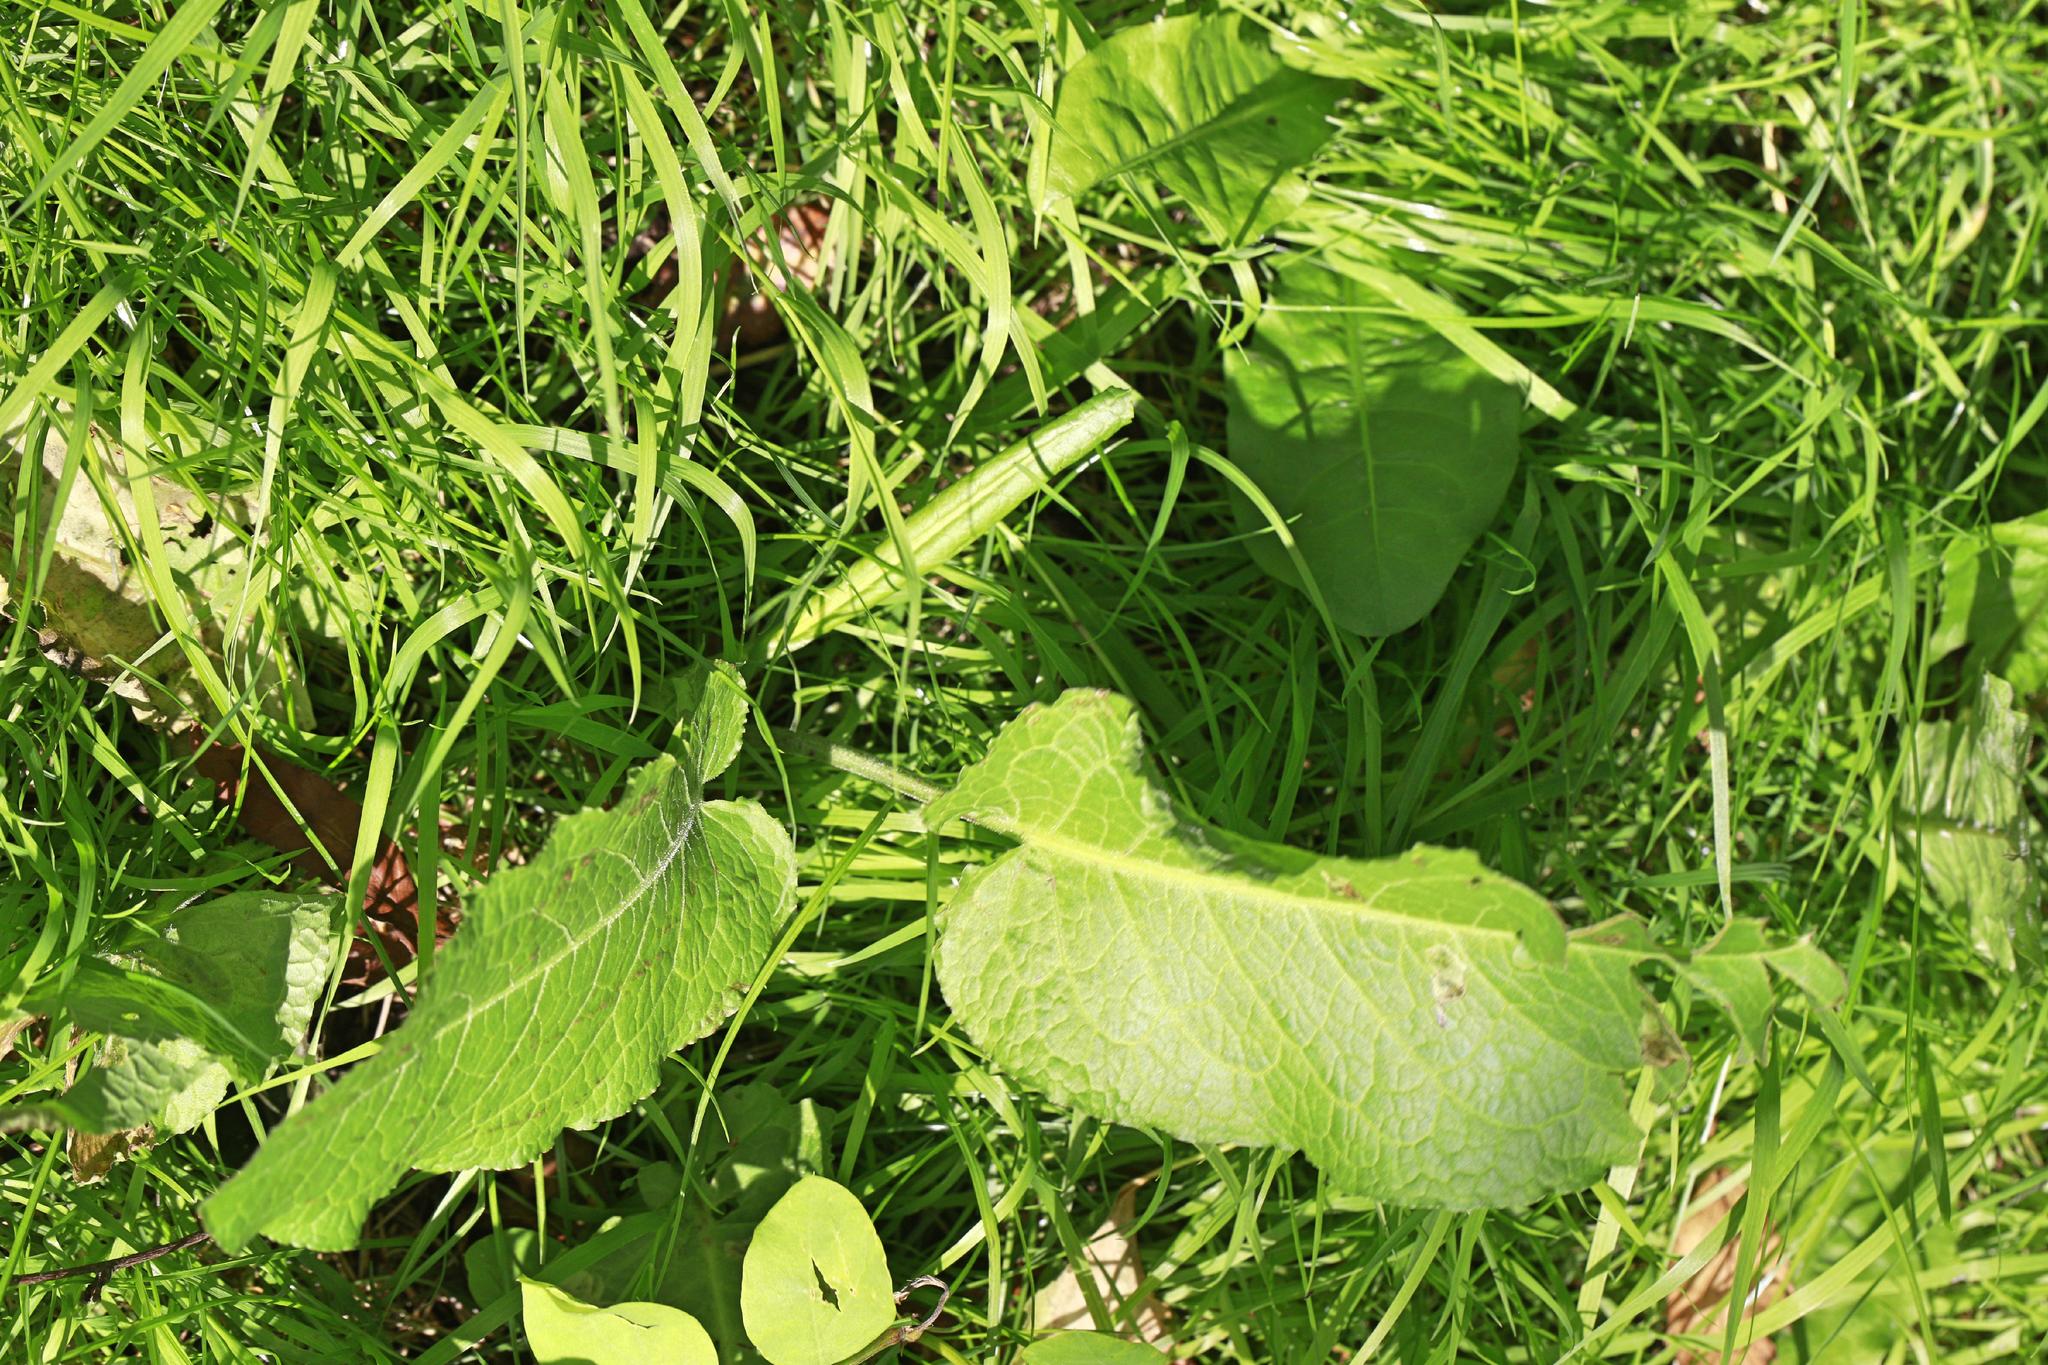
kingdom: Plantae
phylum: Tracheophyta
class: Magnoliopsida
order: Caryophyllales
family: Polygonaceae
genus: Rumex
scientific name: Rumex obtusifolius
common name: Bitter dock
